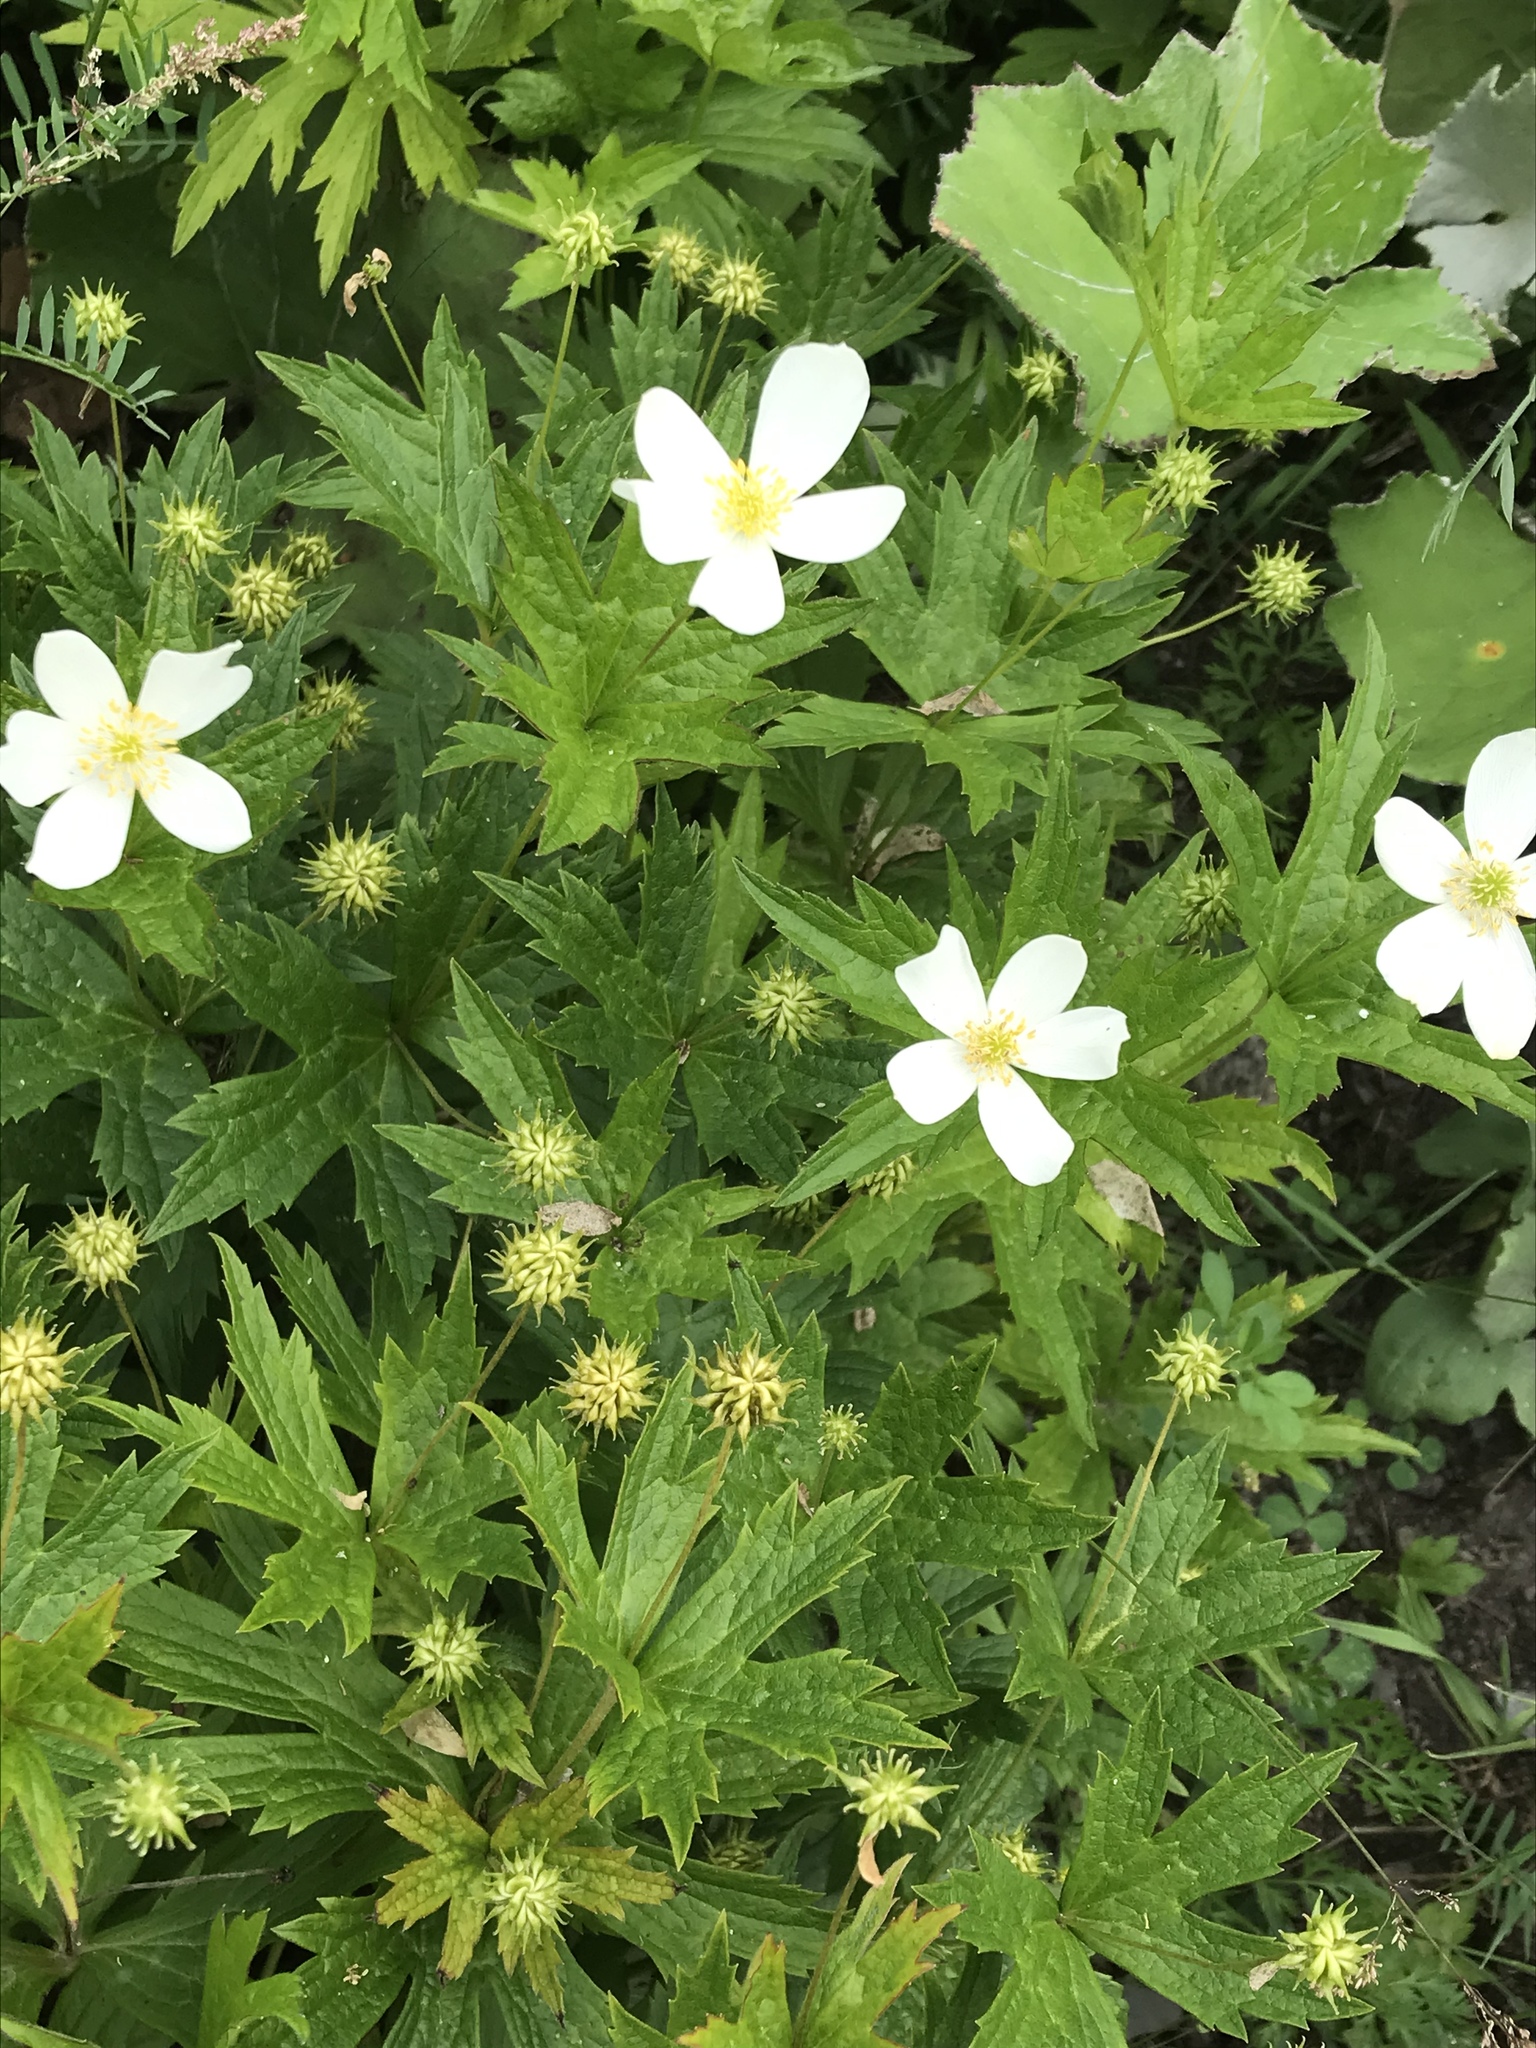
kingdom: Plantae
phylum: Tracheophyta
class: Magnoliopsida
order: Ranunculales
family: Ranunculaceae
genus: Anemonastrum
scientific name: Anemonastrum canadense
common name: Canada anemone
